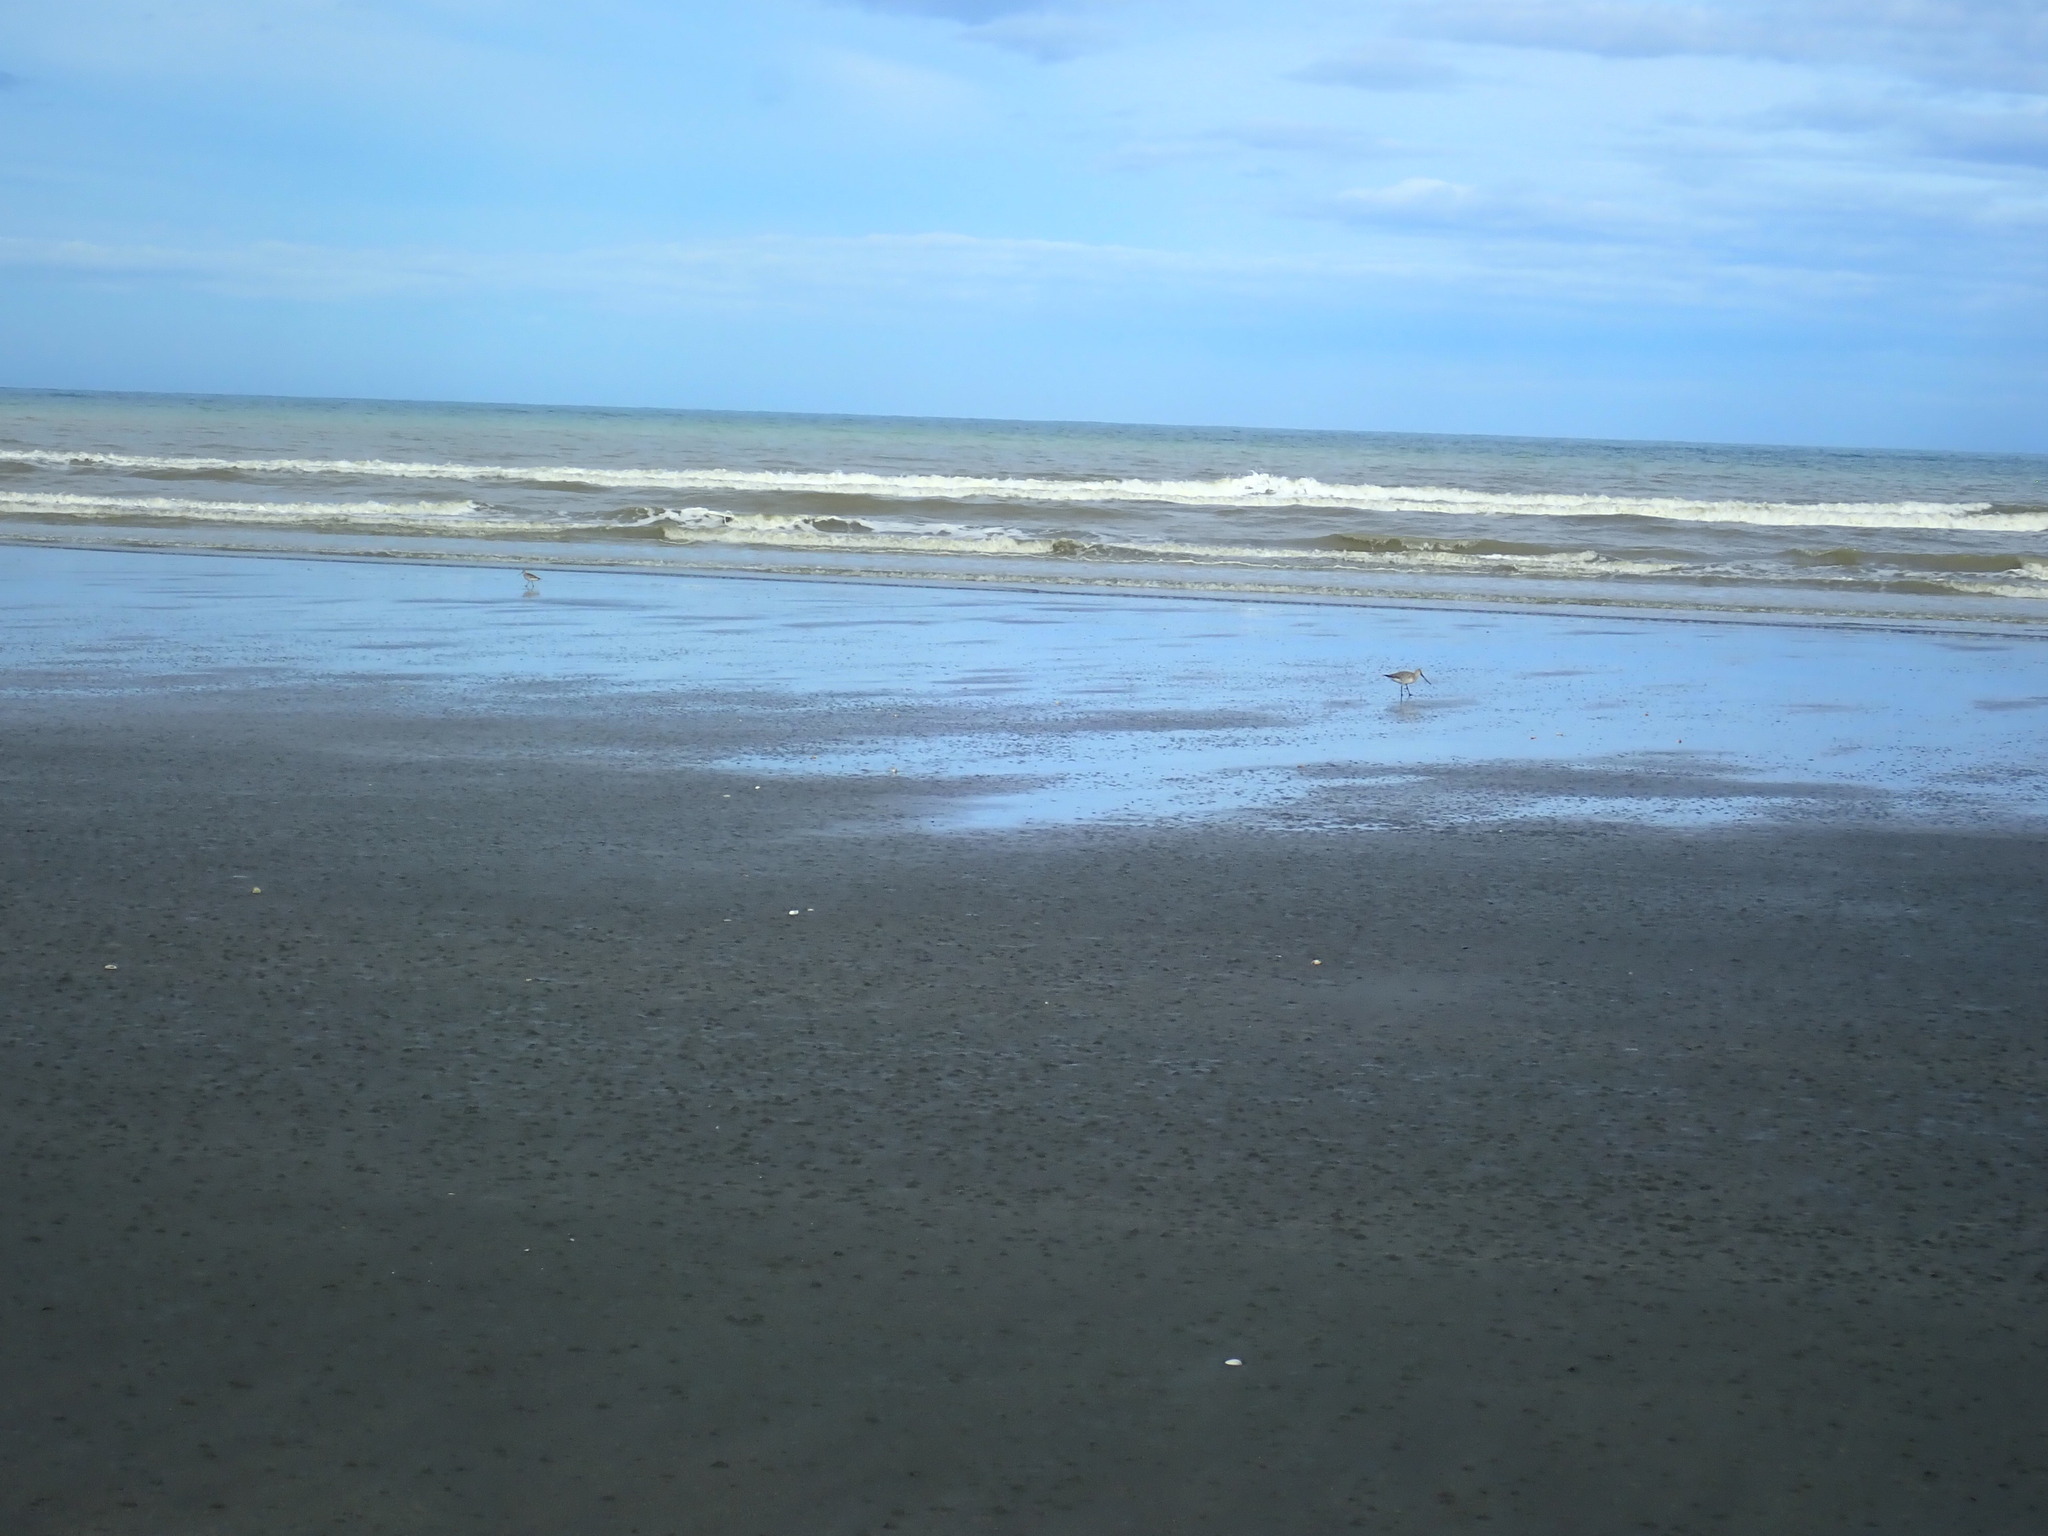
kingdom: Animalia
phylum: Chordata
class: Aves
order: Charadriiformes
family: Scolopacidae
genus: Limosa
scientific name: Limosa lapponica
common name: Bar-tailed godwit
